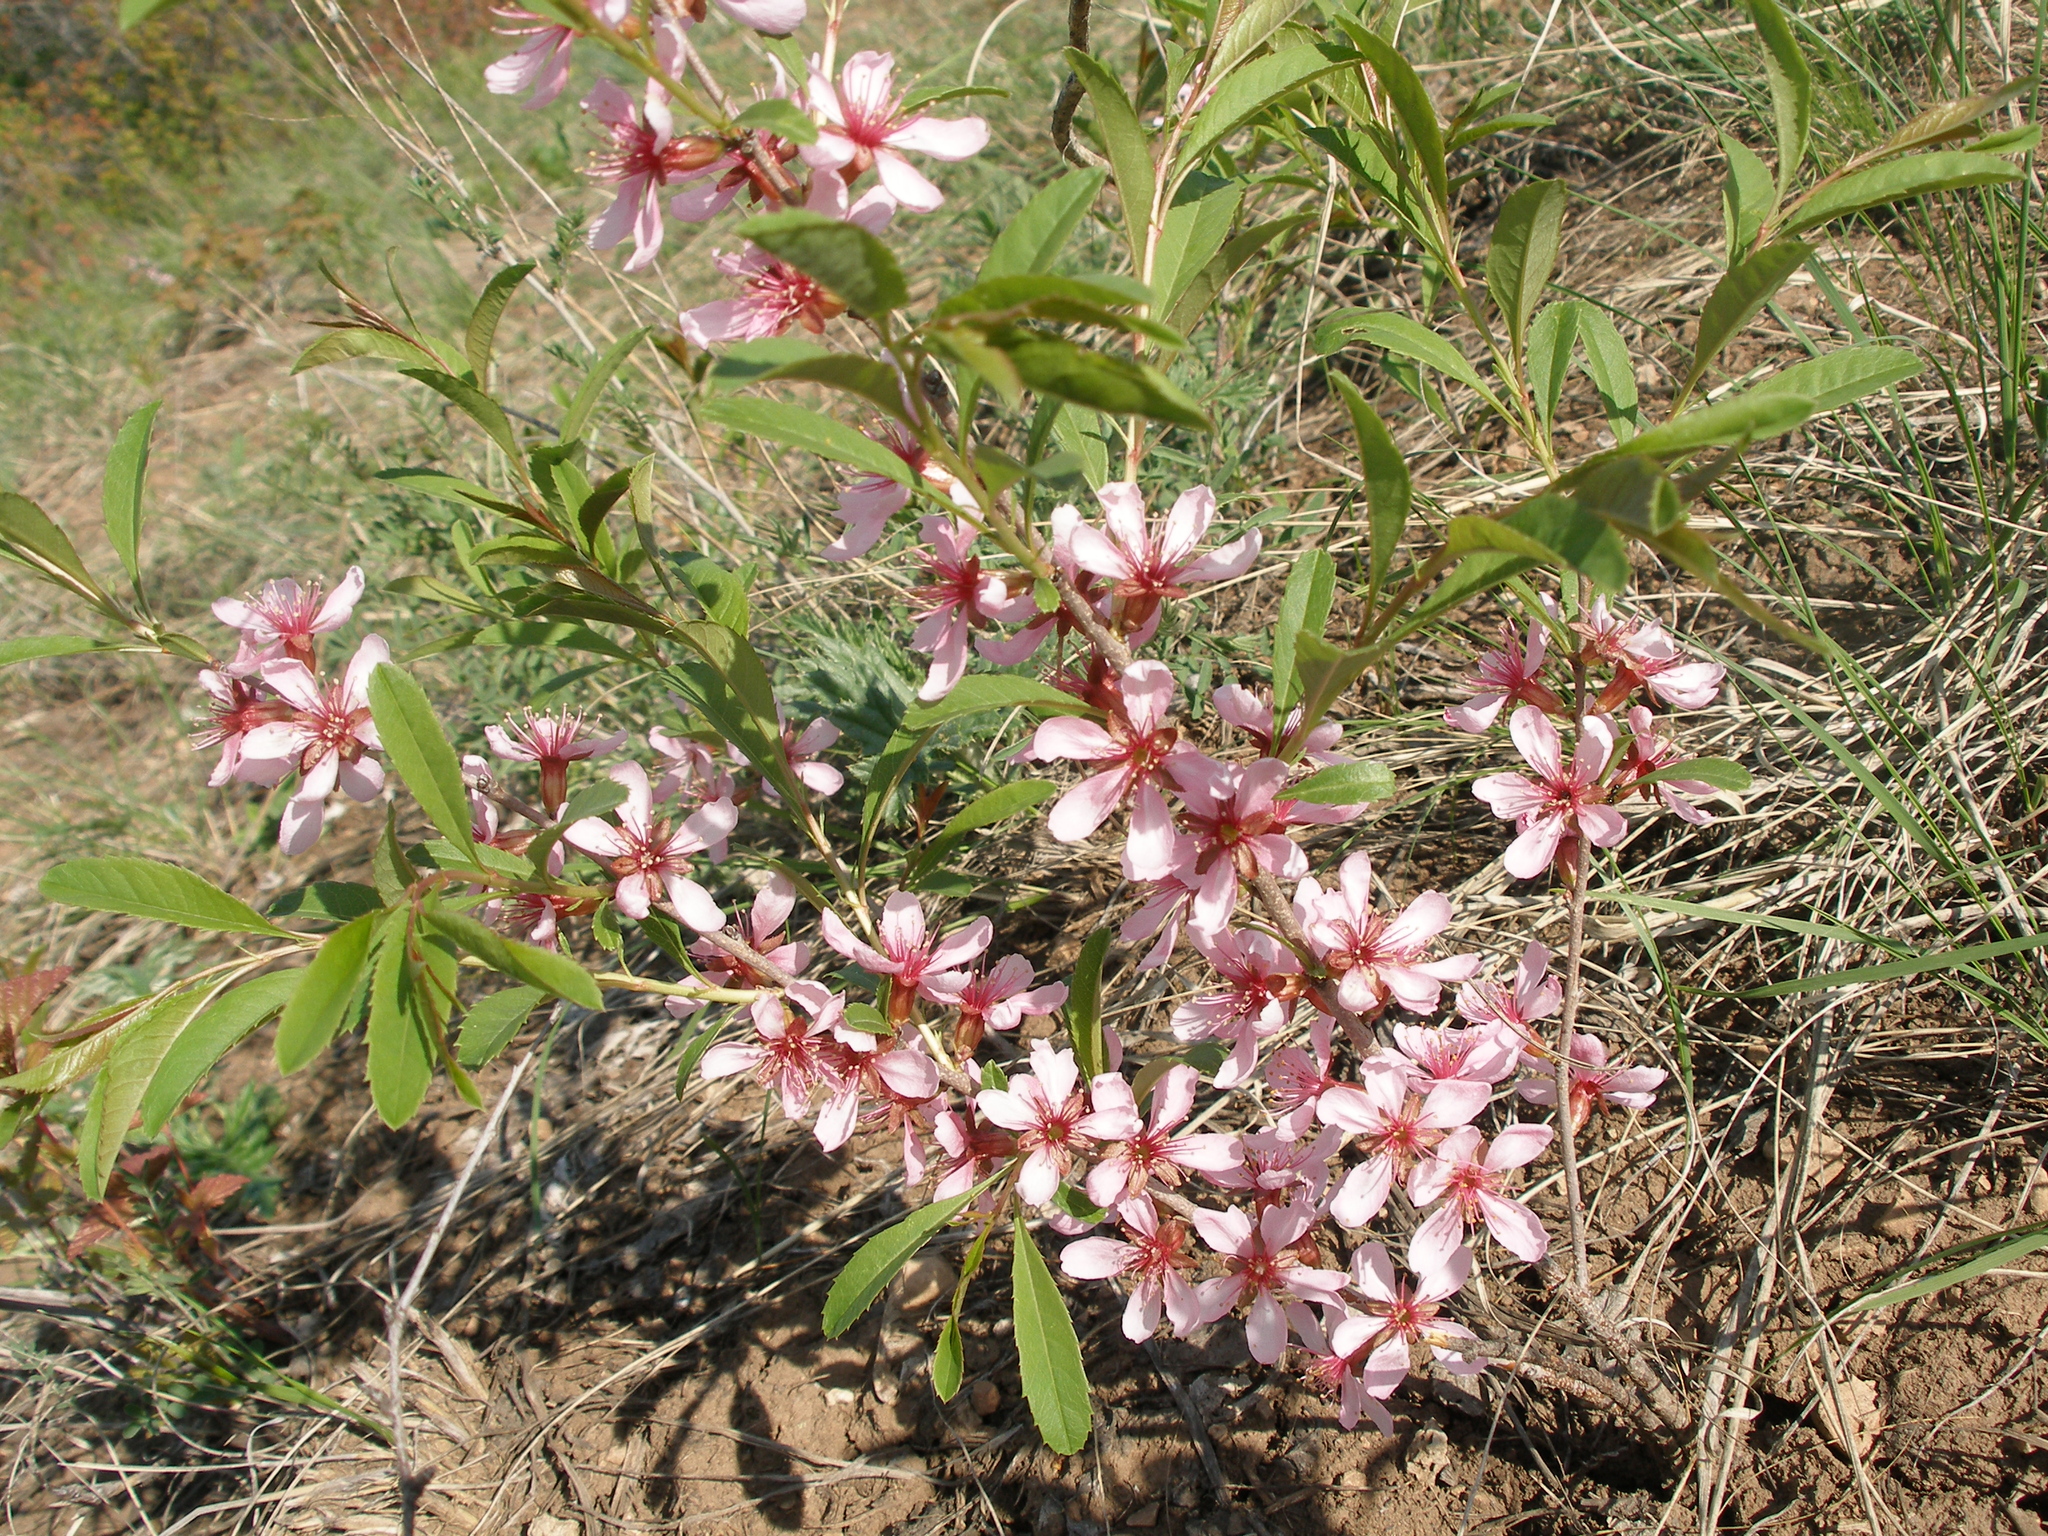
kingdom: Plantae
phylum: Tracheophyta
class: Magnoliopsida
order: Rosales
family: Rosaceae
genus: Prunus
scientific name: Prunus tenella
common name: Dwarf russian almond
